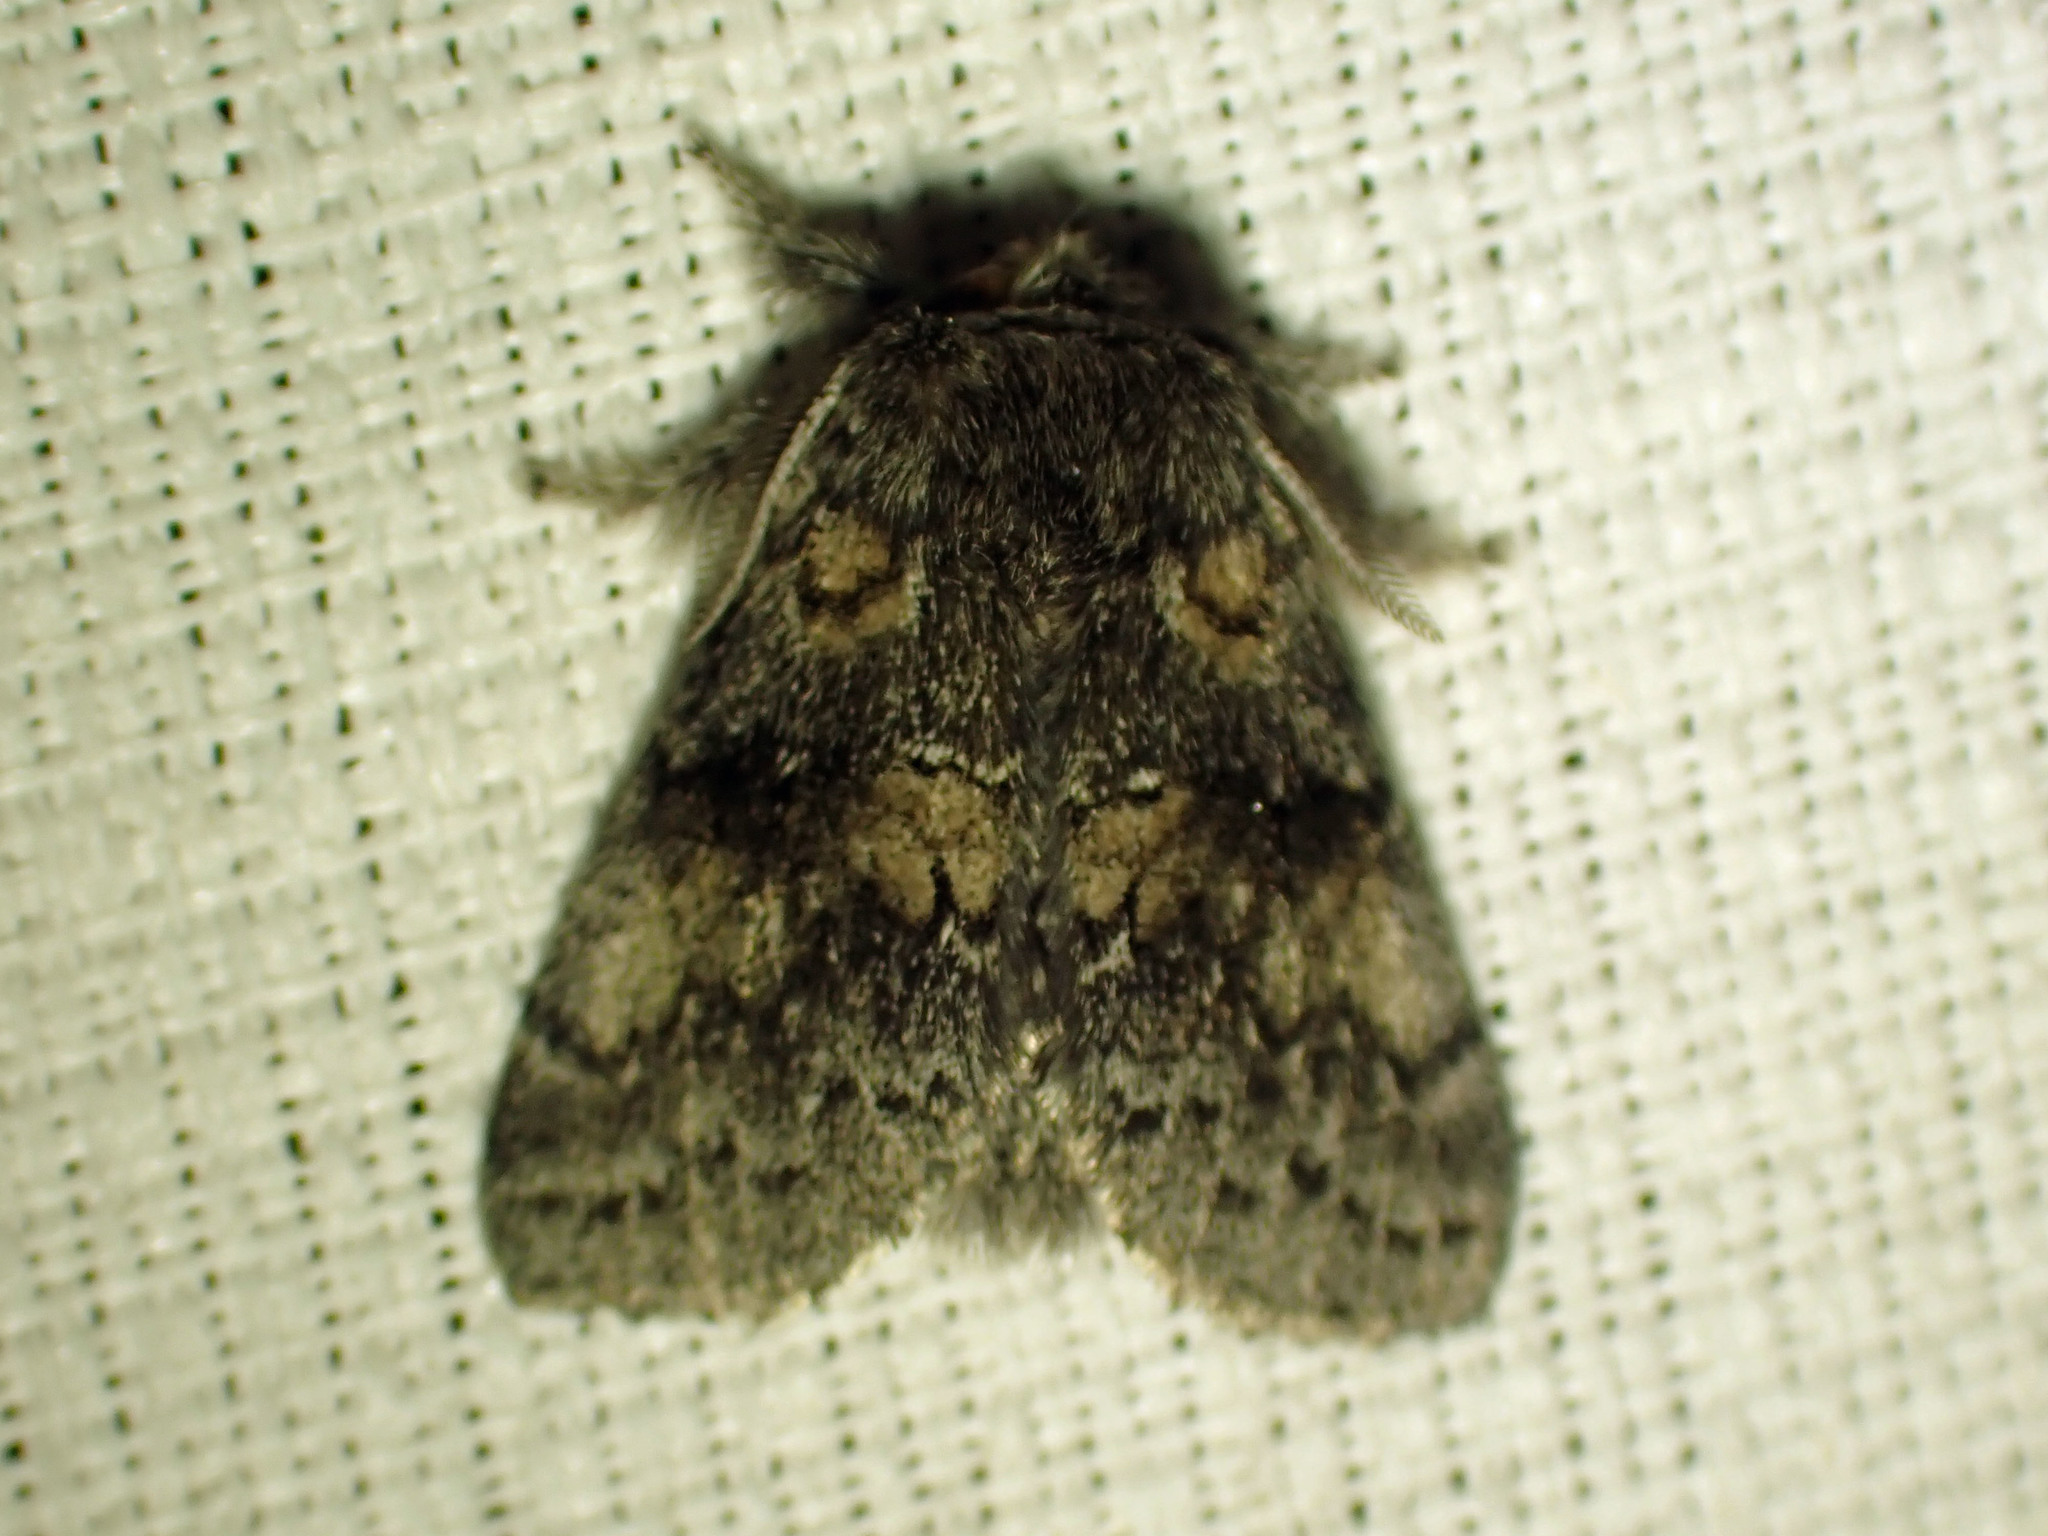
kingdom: Animalia
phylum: Arthropoda
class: Insecta
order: Lepidoptera
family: Notodontidae
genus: Gluphisia
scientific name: Gluphisia septentrionis
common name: Common gluphisia
